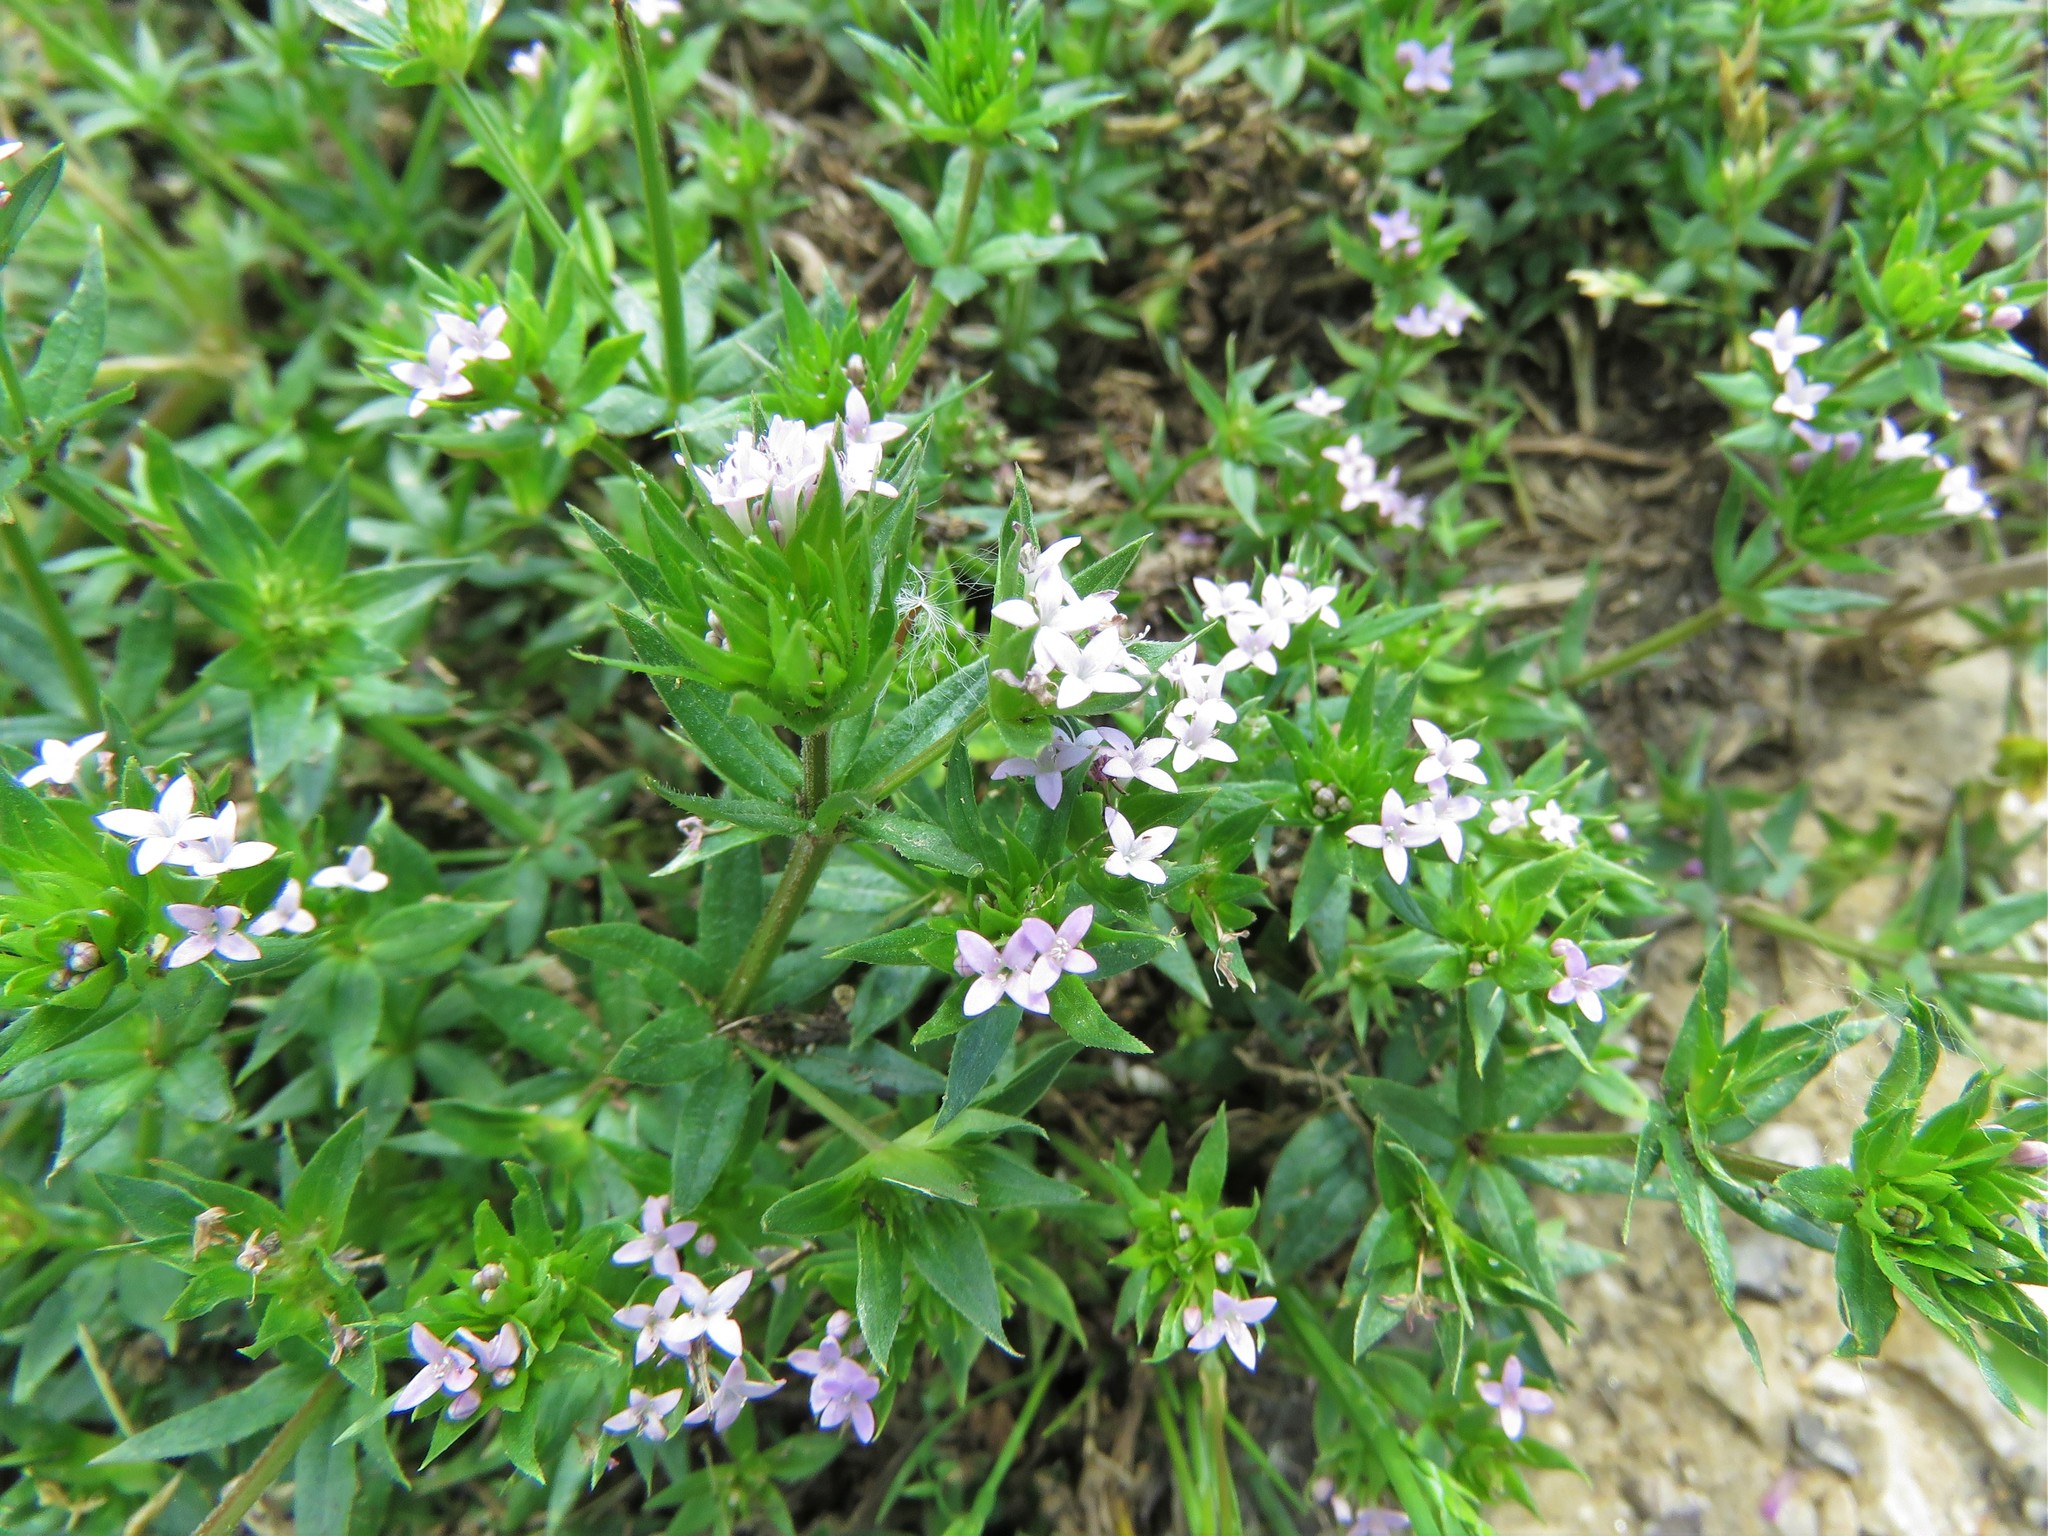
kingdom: Plantae
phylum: Tracheophyta
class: Magnoliopsida
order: Gentianales
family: Rubiaceae
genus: Sherardia
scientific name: Sherardia arvensis
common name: Field madder
